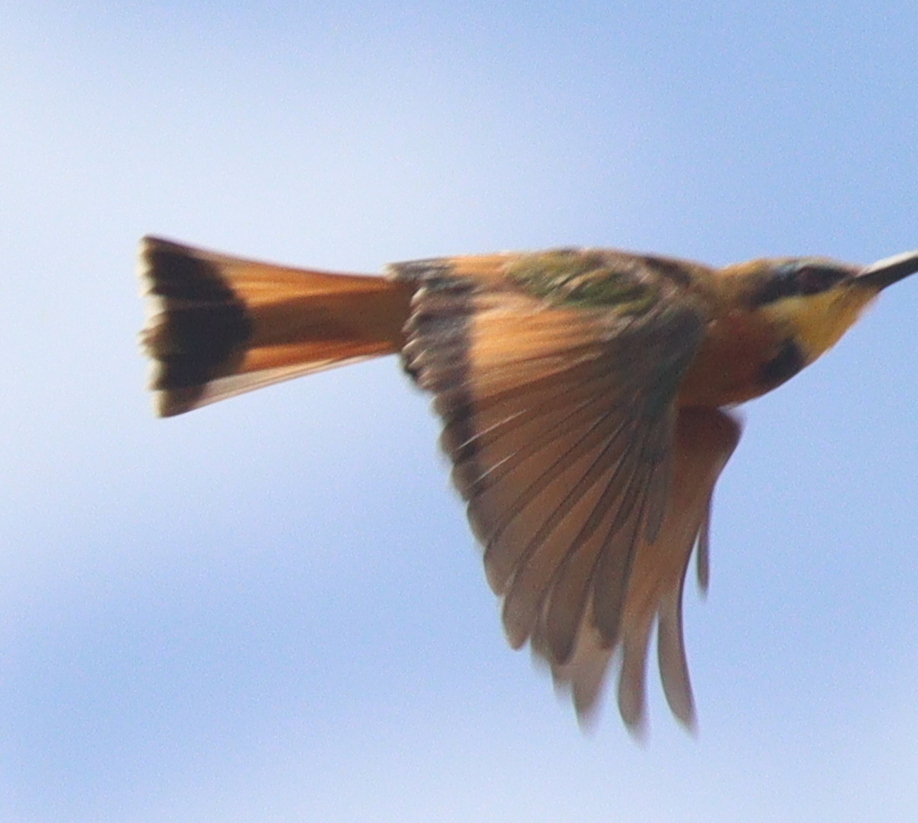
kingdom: Animalia
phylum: Chordata
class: Aves
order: Coraciiformes
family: Meropidae
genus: Merops
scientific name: Merops pusillus
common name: Little bee-eater
